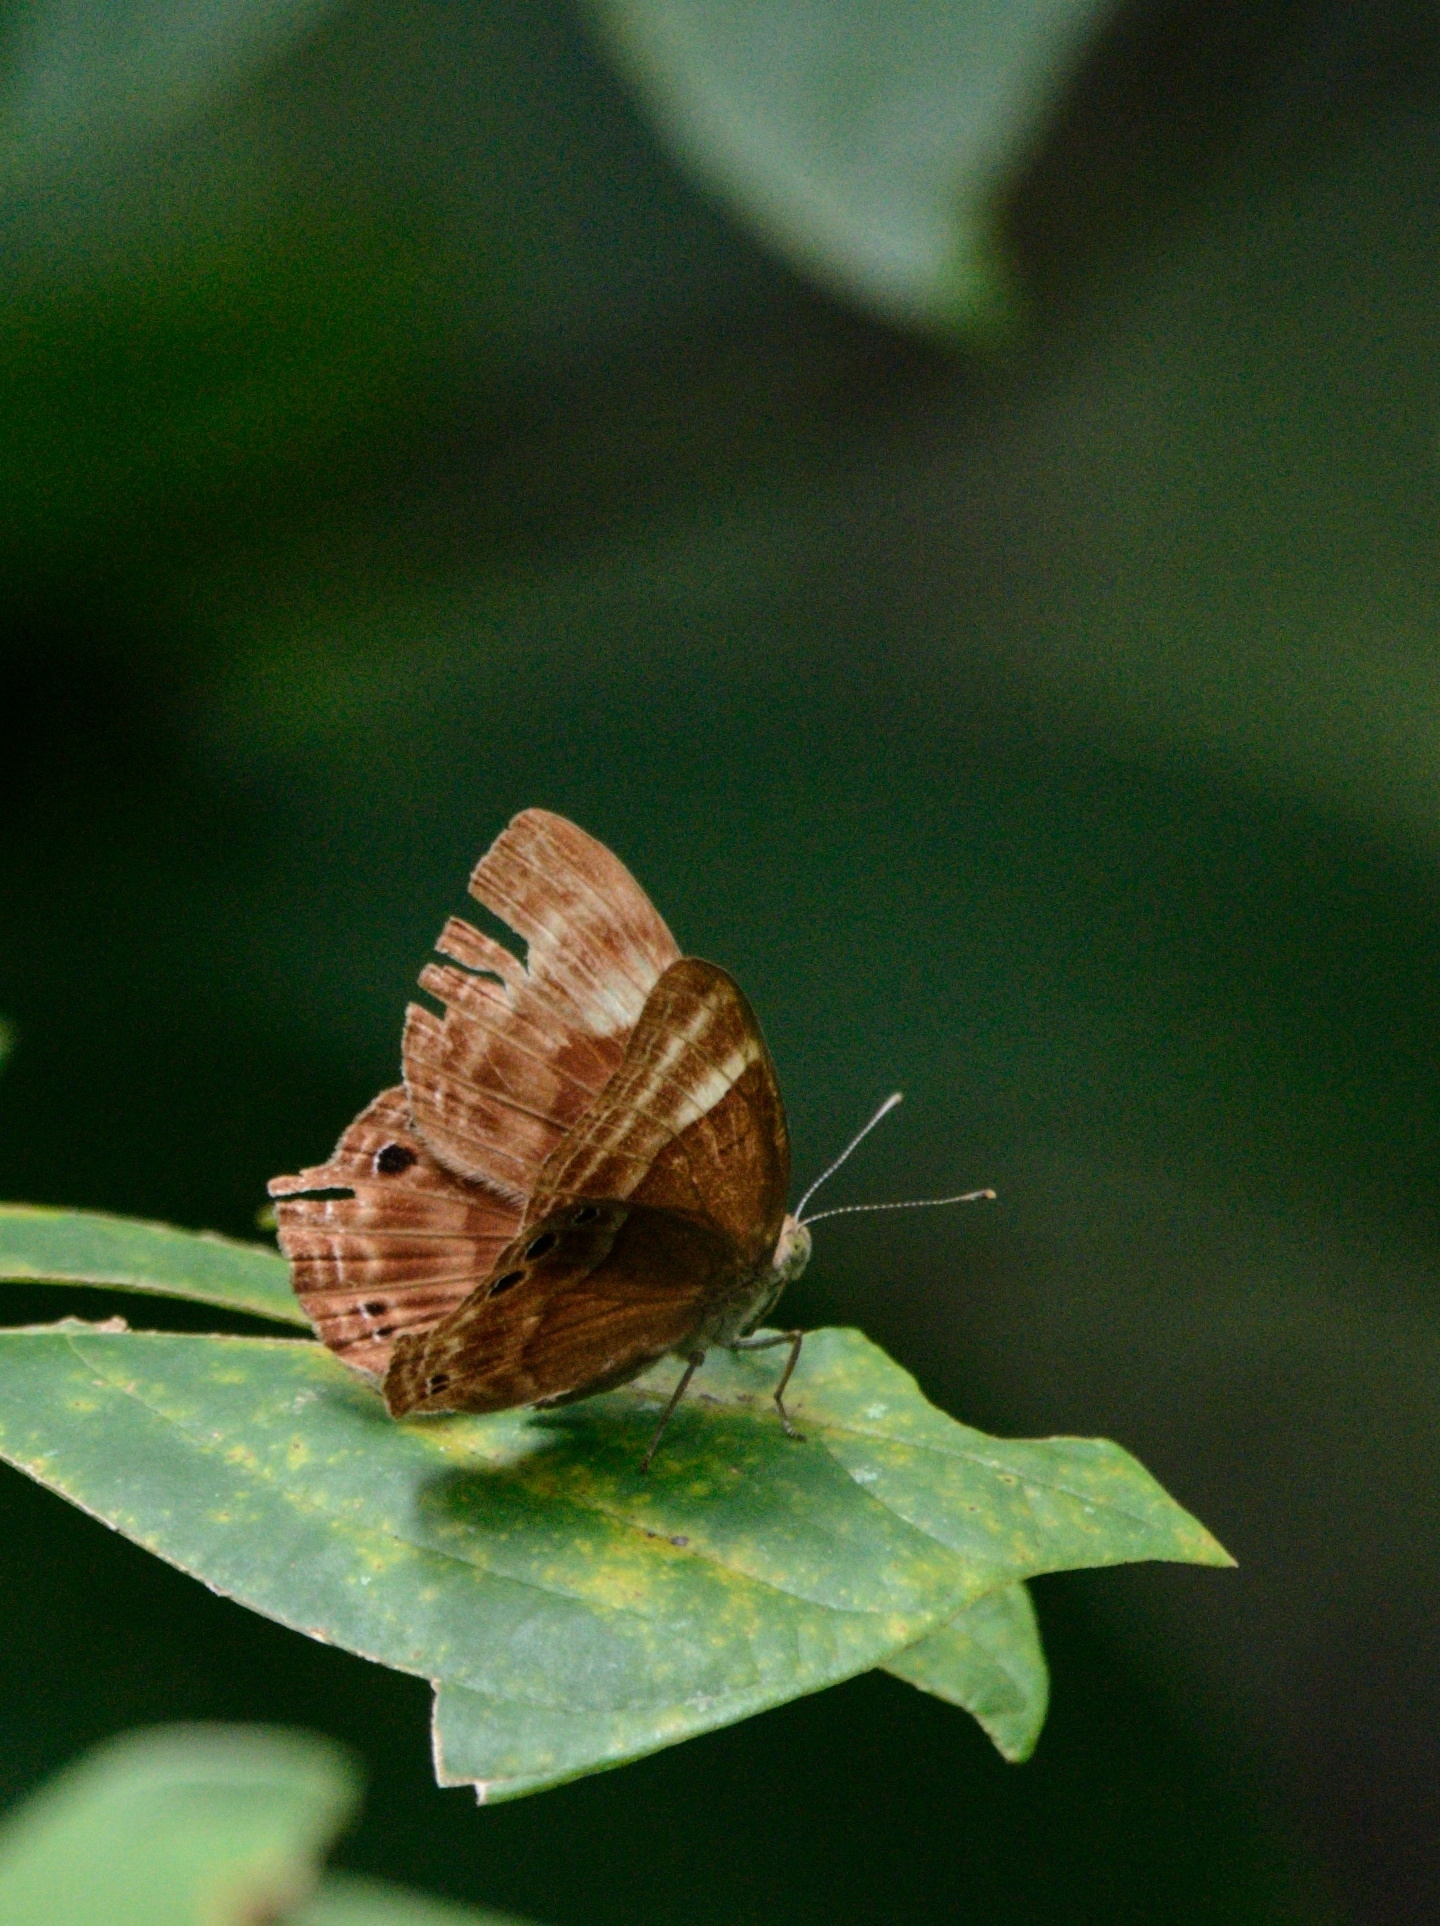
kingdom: Animalia
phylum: Arthropoda
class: Insecta
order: Lepidoptera
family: Lycaenidae
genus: Abisara
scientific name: Abisara bifasciata
